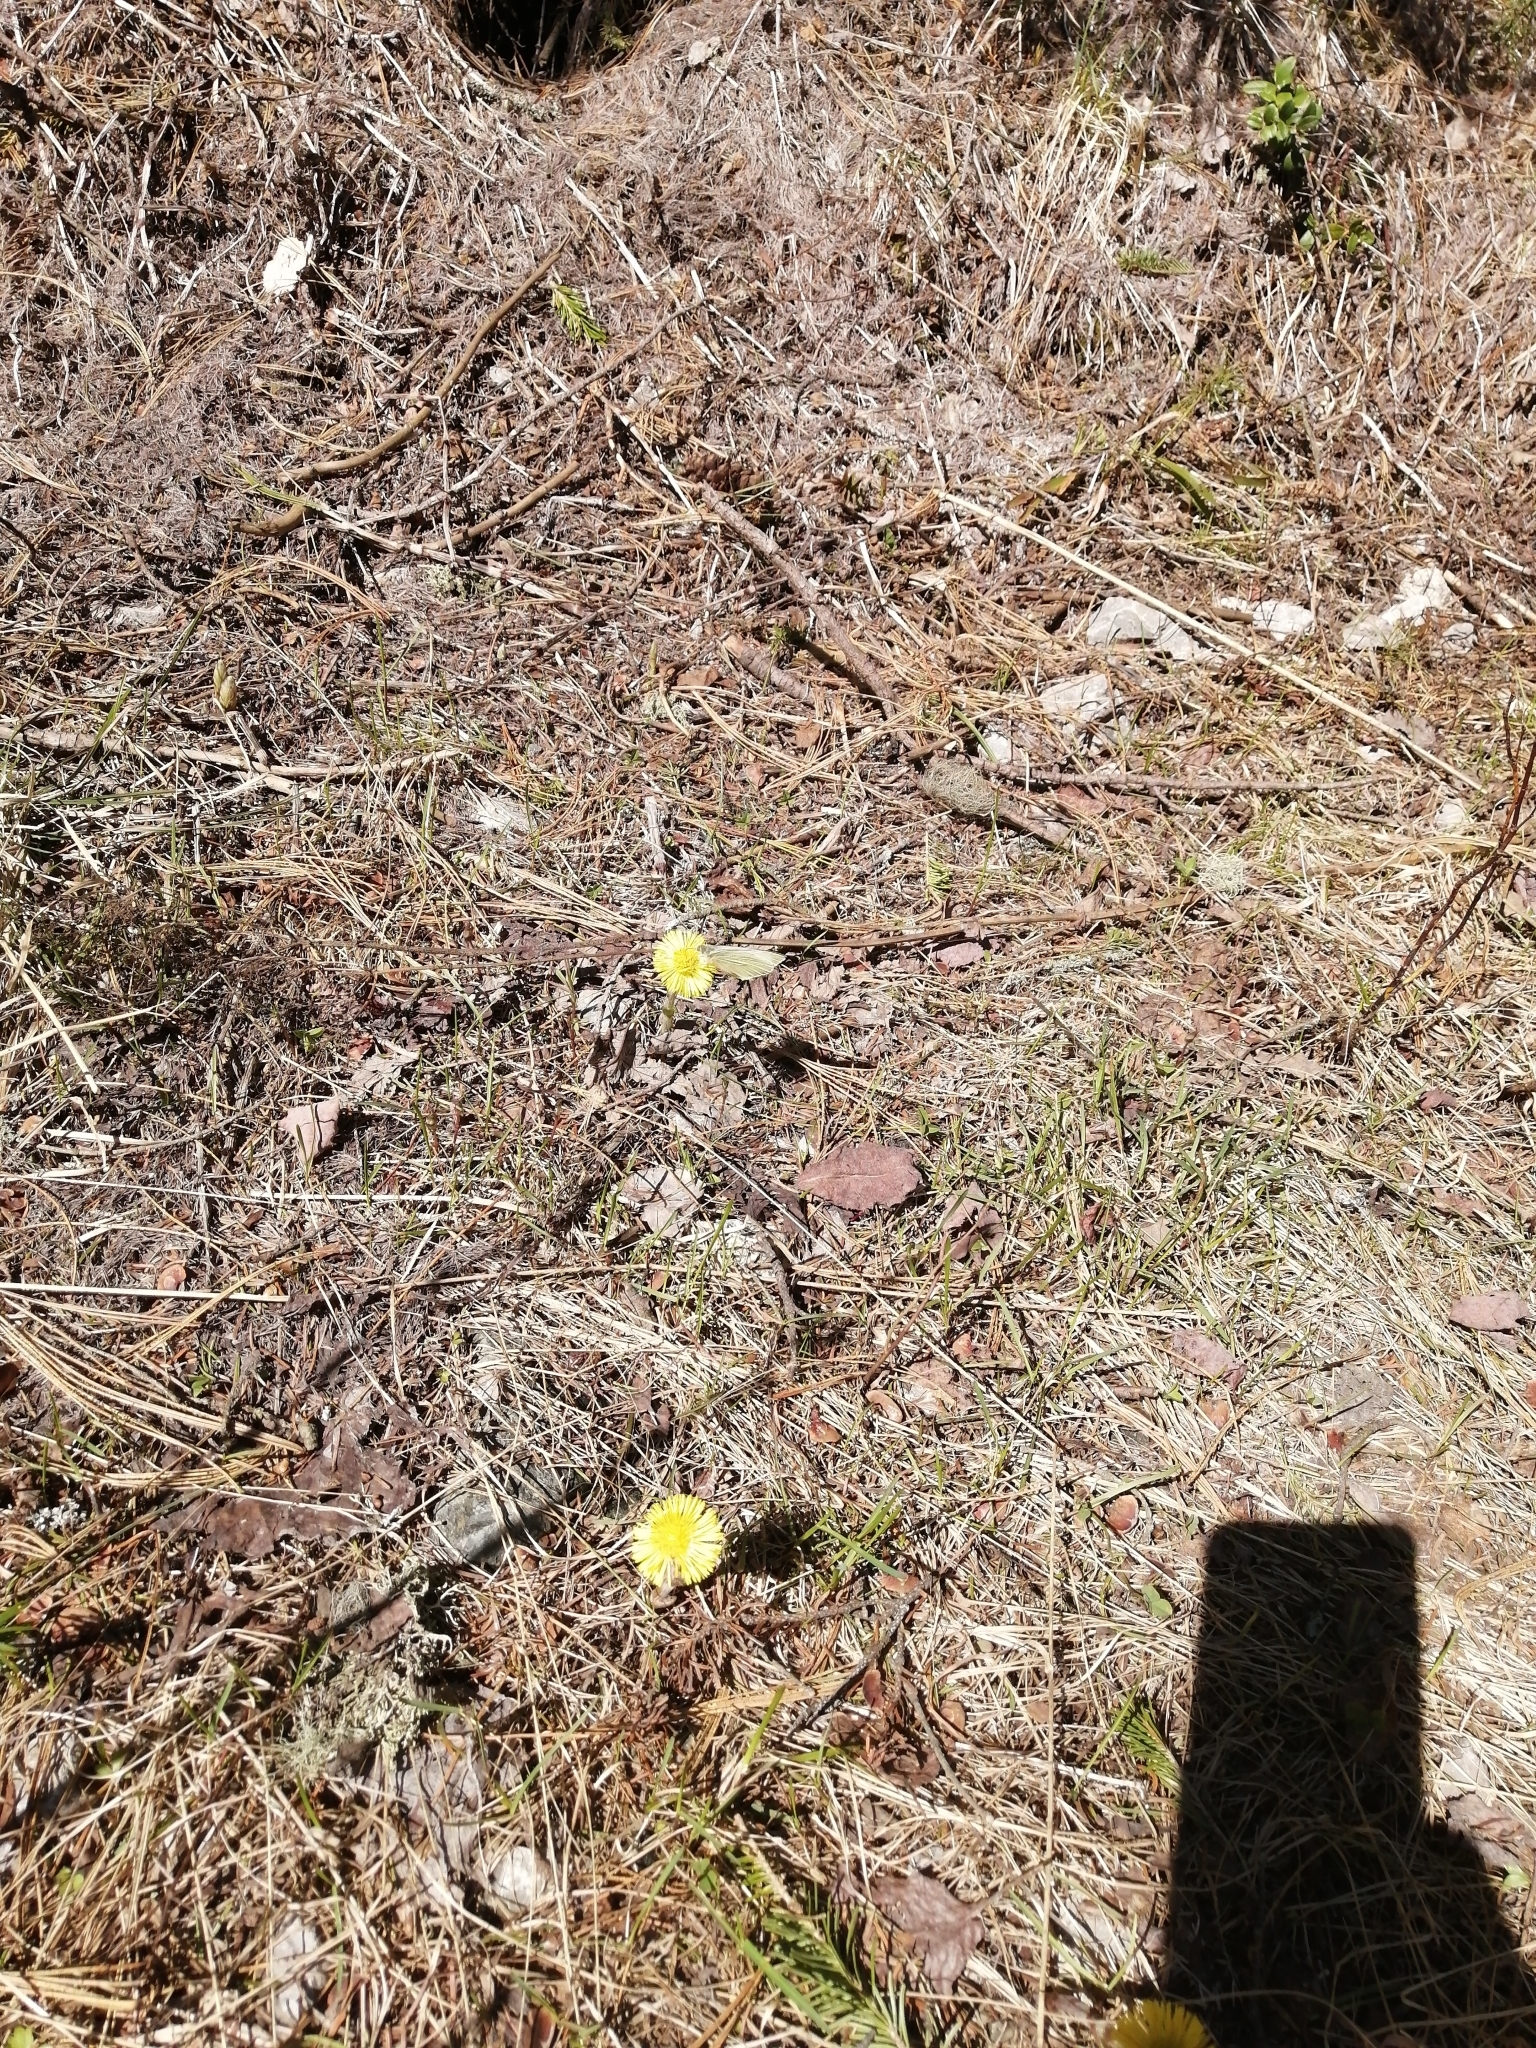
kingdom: Plantae
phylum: Tracheophyta
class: Magnoliopsida
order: Asterales
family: Asteraceae
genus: Tussilago
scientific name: Tussilago farfara
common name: Coltsfoot
